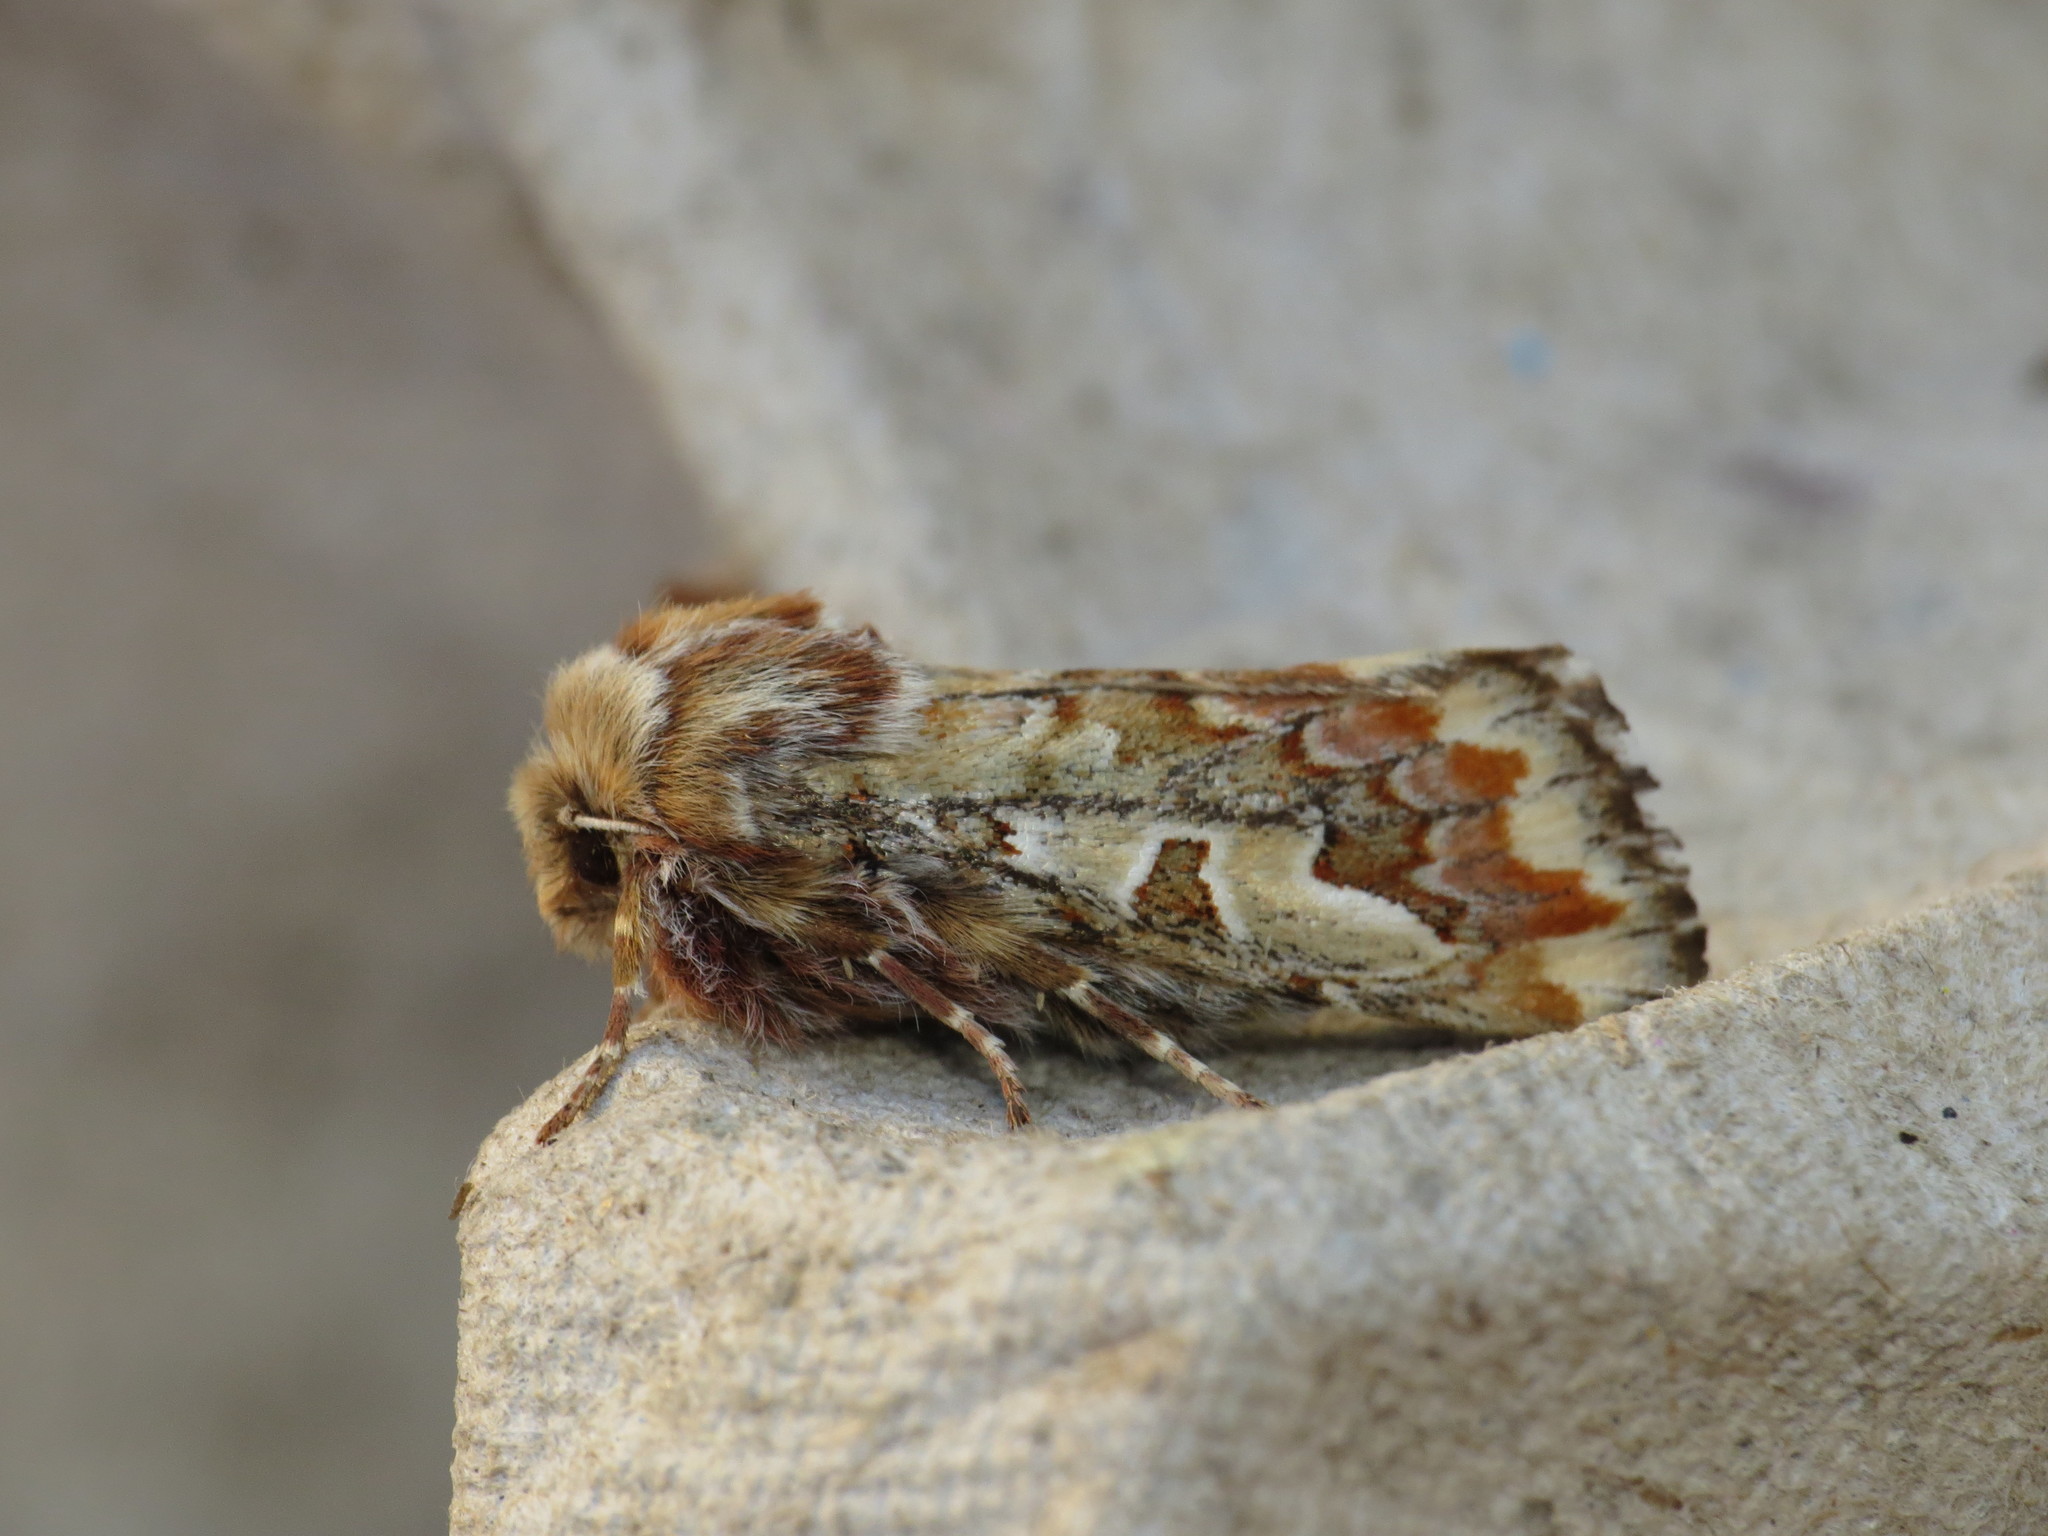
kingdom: Animalia
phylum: Arthropoda
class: Insecta
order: Lepidoptera
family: Noctuidae
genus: Panolis
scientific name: Panolis flammea
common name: Pine beauty
